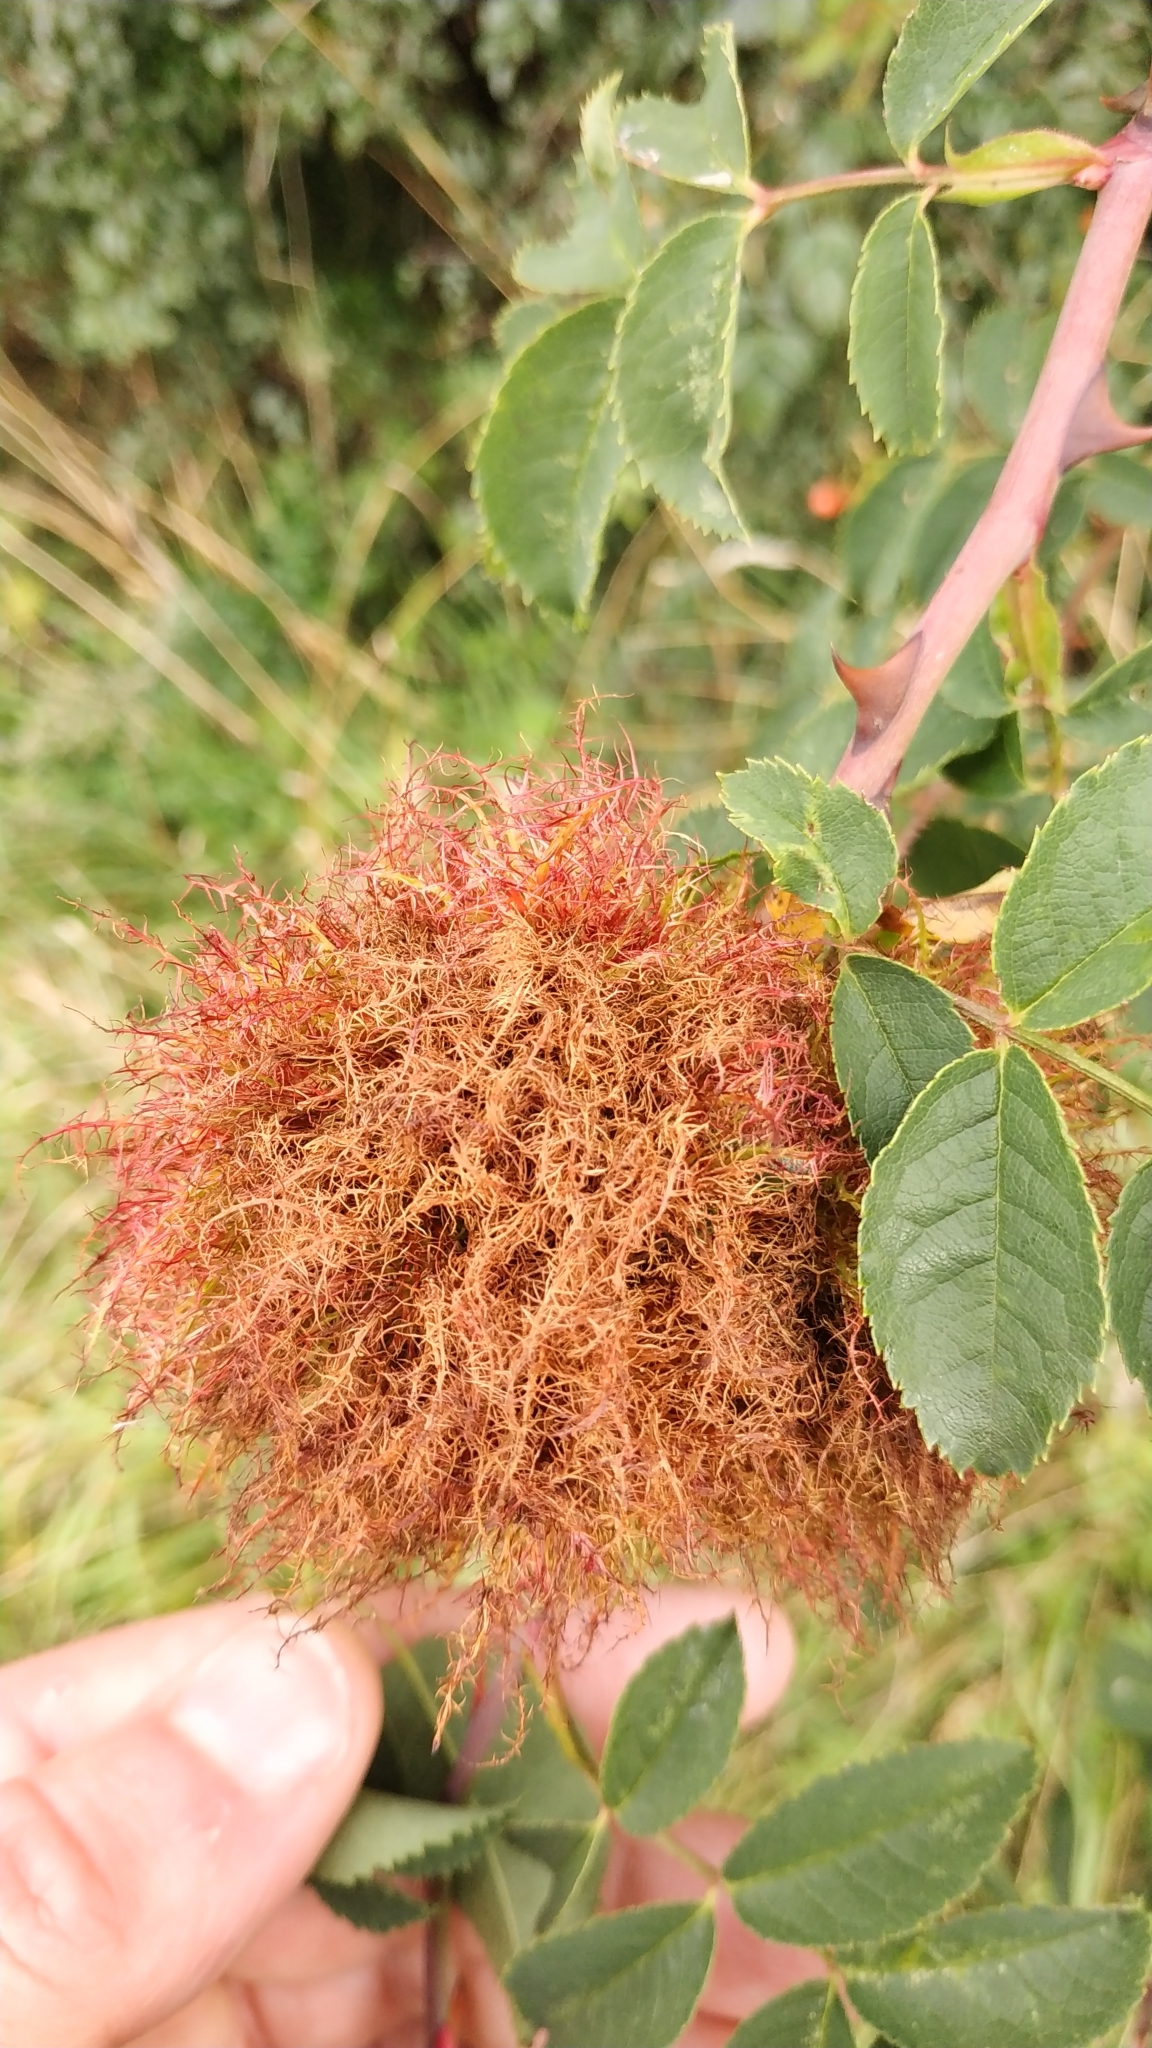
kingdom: Animalia
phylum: Arthropoda
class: Insecta
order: Hymenoptera
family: Cynipidae
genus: Diplolepis
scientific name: Diplolepis rosae
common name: Bedeguar gall
